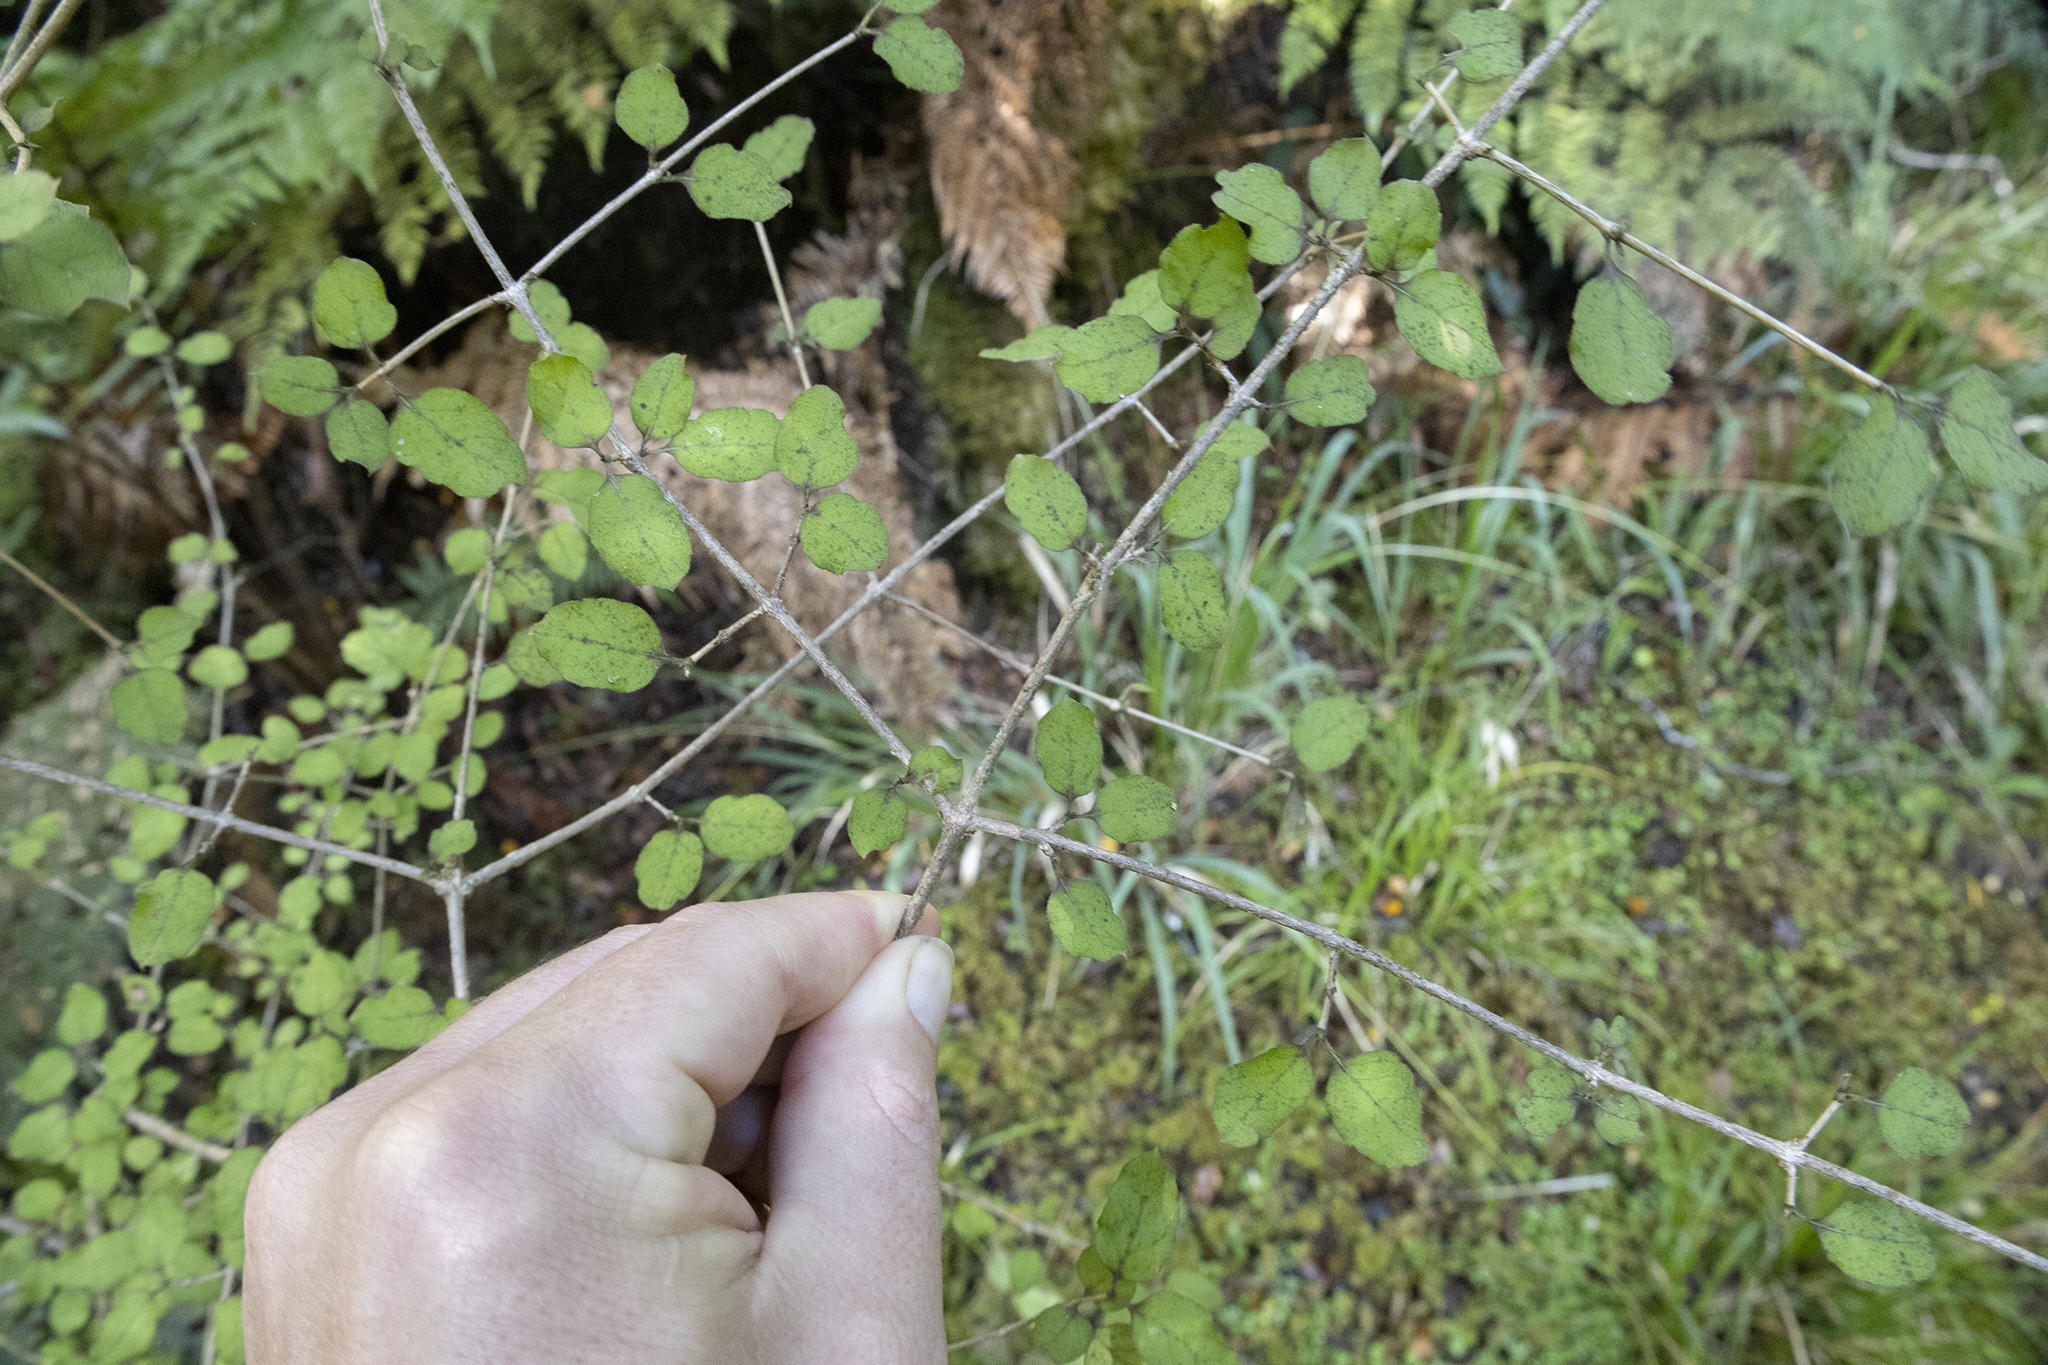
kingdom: Plantae
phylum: Tracheophyta
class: Magnoliopsida
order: Gentianales
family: Rubiaceae
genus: Coprosma
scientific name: Coprosma rotundifolia
